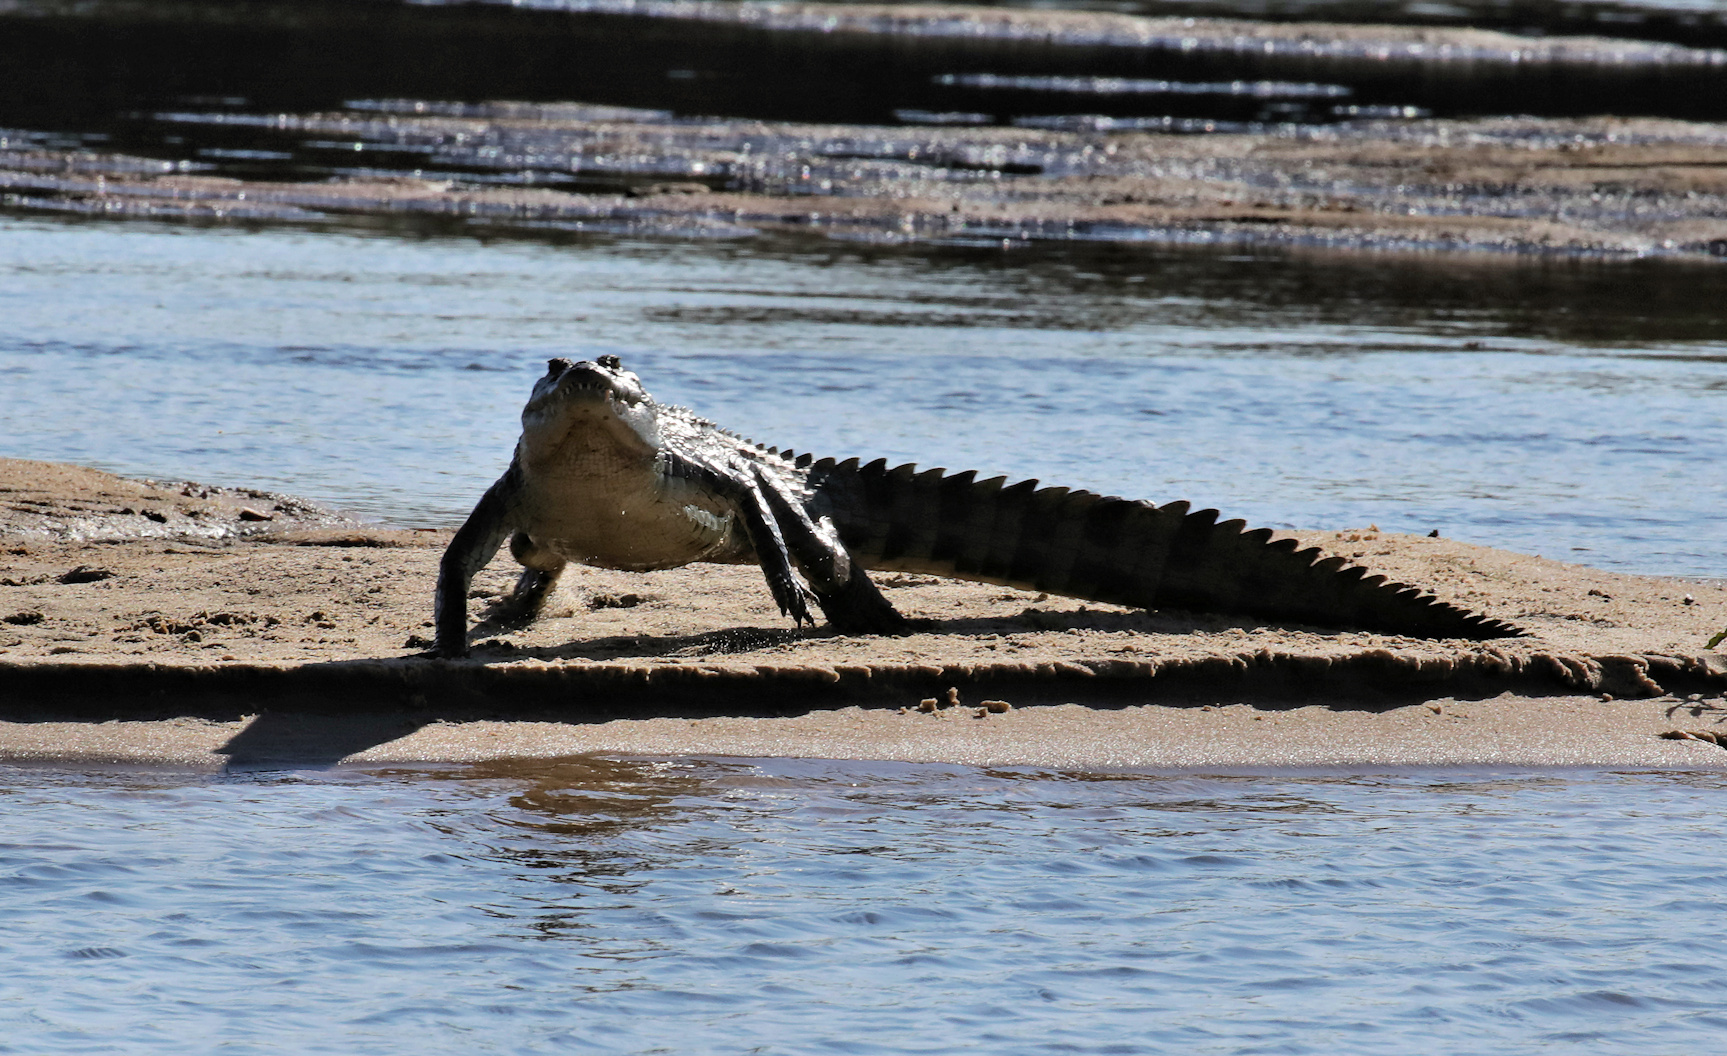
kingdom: Animalia
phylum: Chordata
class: Crocodylia
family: Crocodylidae
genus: Crocodylus
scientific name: Crocodylus niloticus
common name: Nile crocodile
